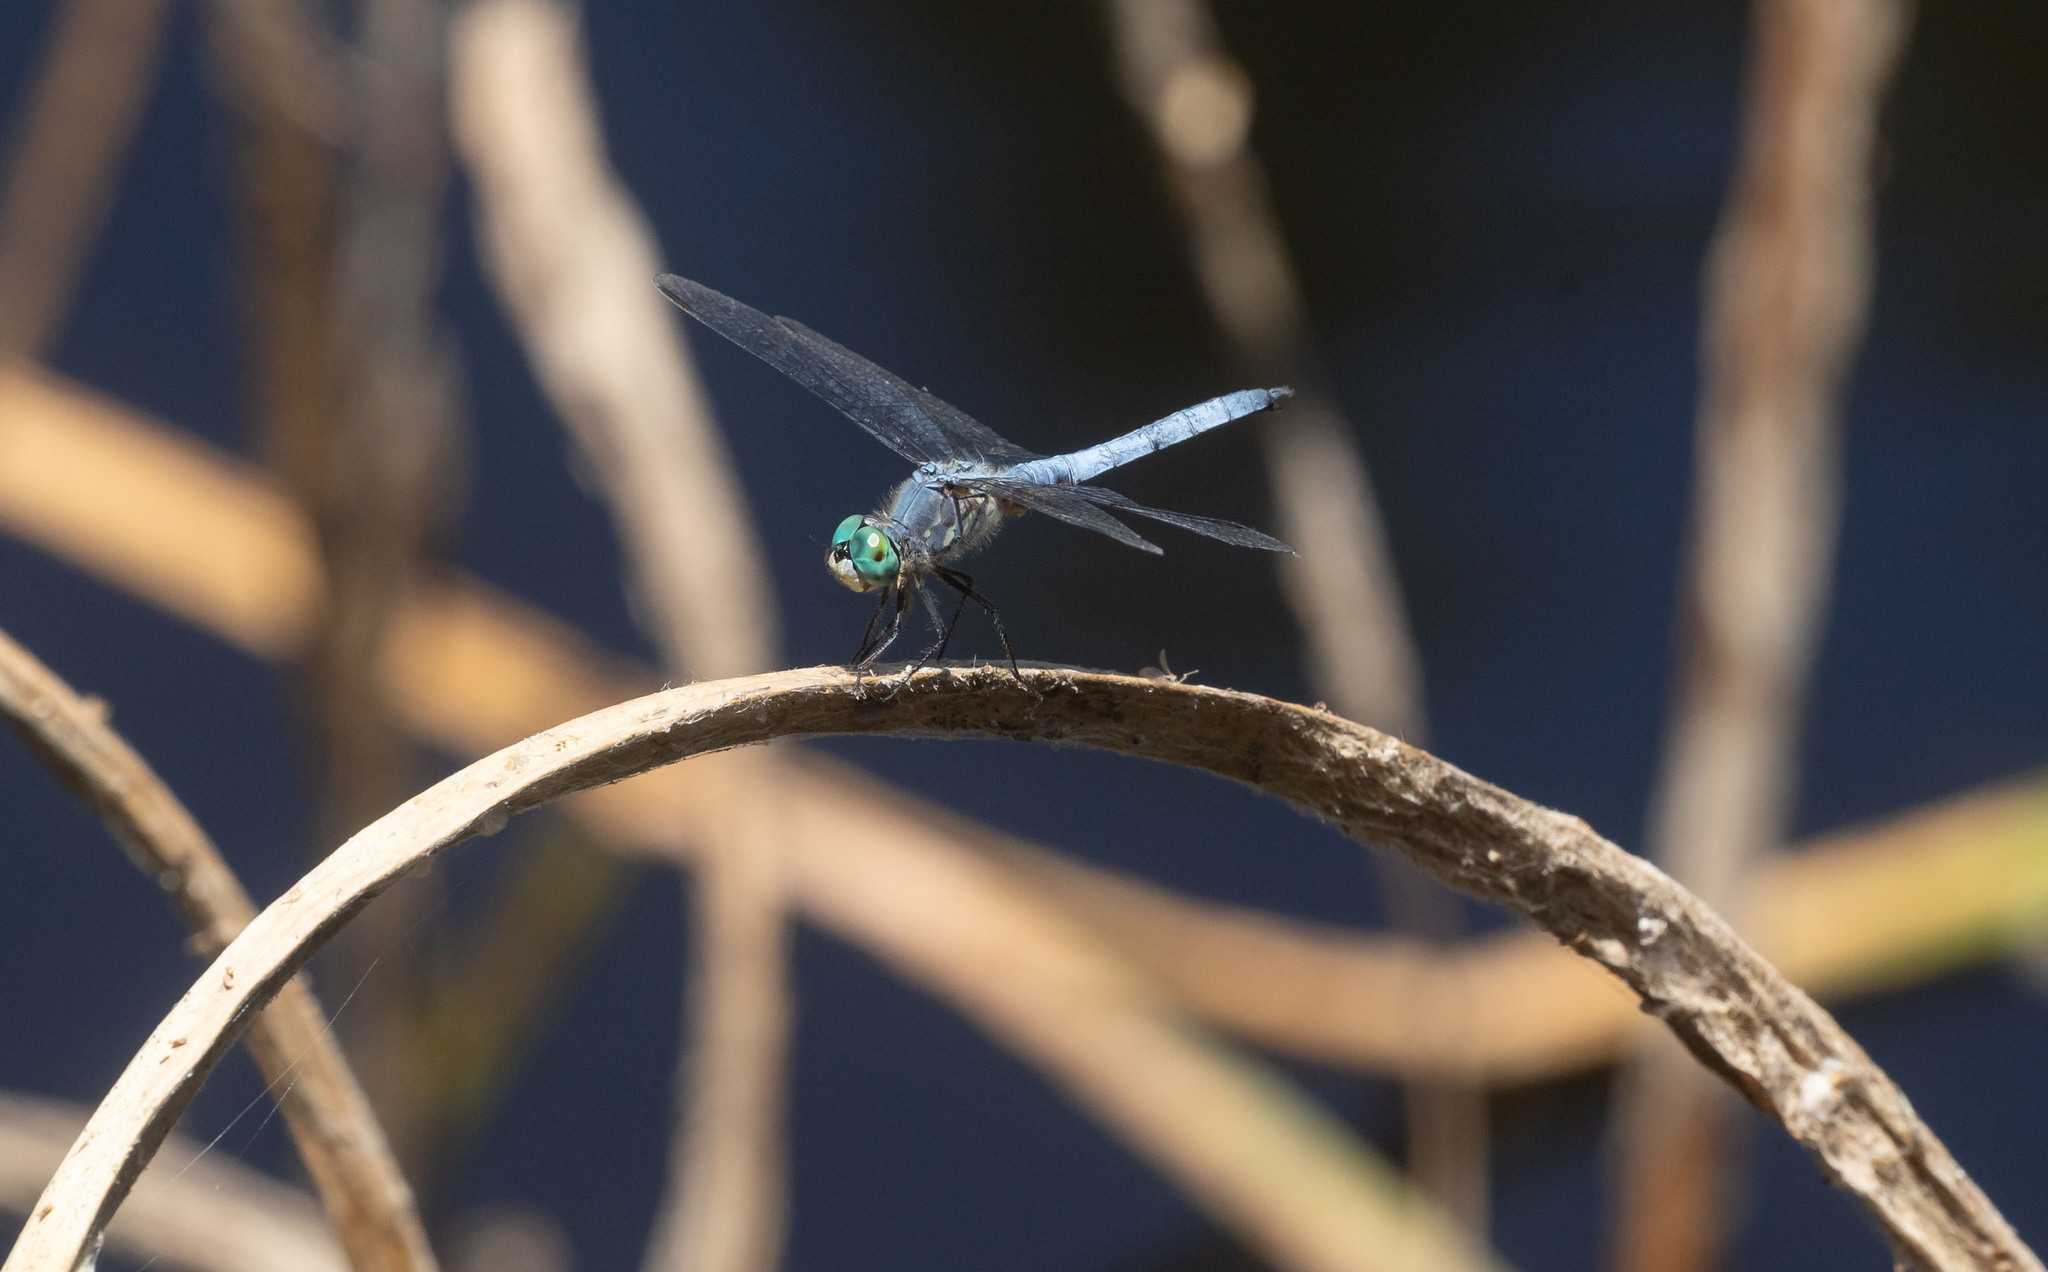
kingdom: Animalia
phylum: Arthropoda
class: Insecta
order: Odonata
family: Libellulidae
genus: Pachydiplax
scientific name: Pachydiplax longipennis
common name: Blue dasher
